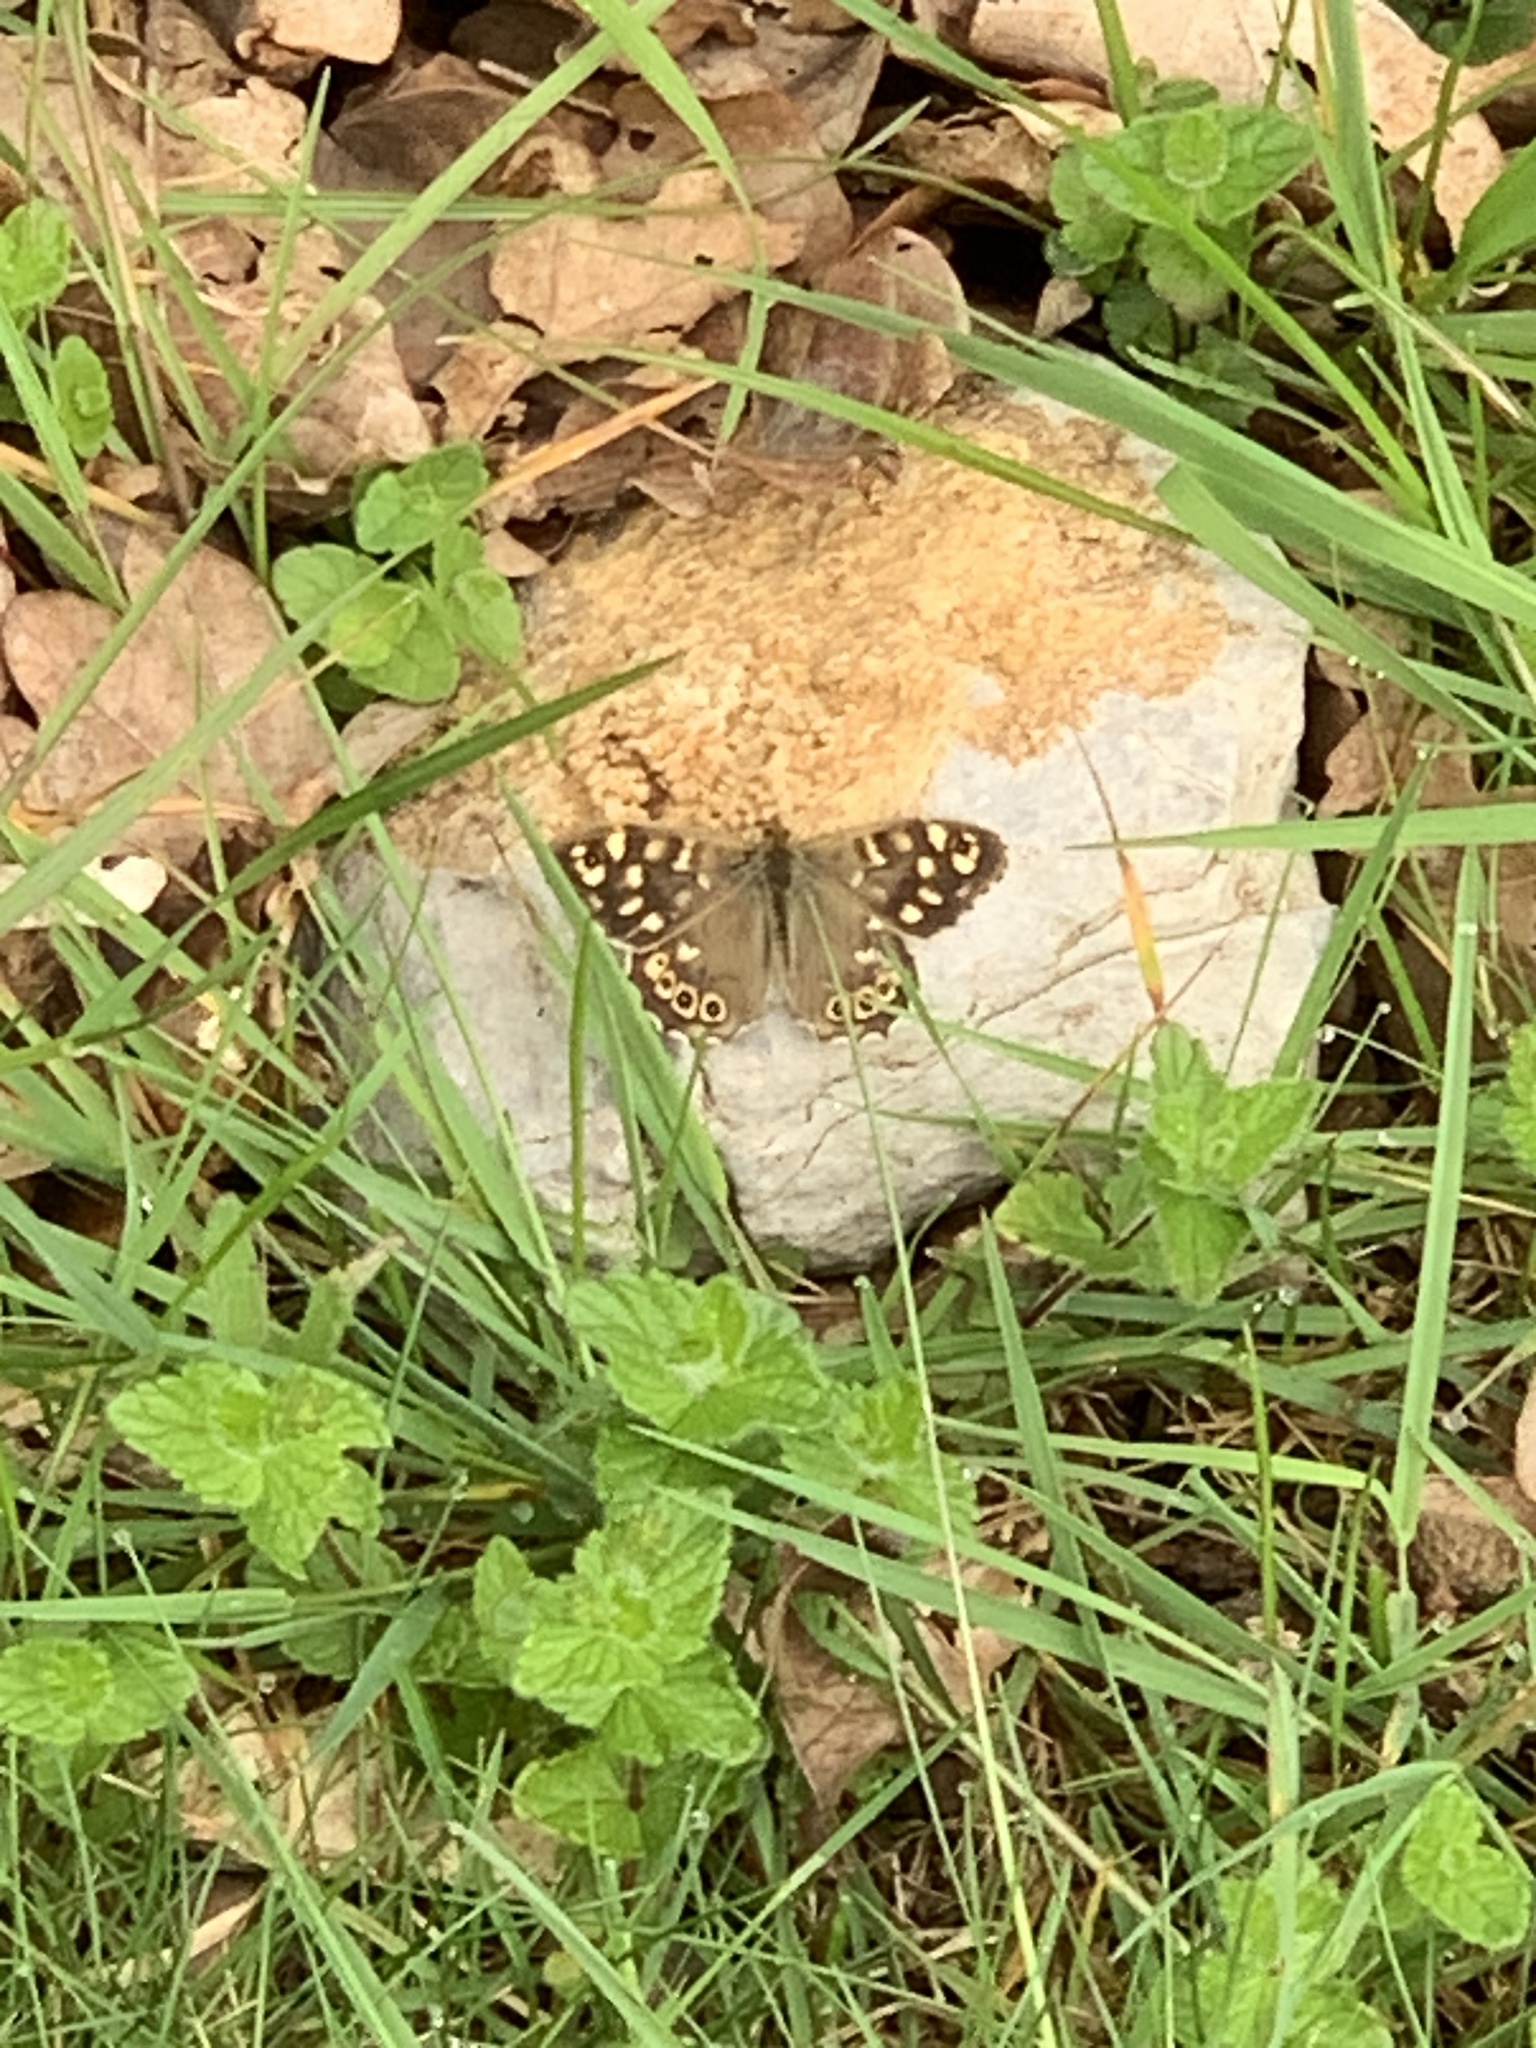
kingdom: Animalia
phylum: Arthropoda
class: Insecta
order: Lepidoptera
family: Nymphalidae
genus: Pararge
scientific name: Pararge aegeria
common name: Speckled wood
